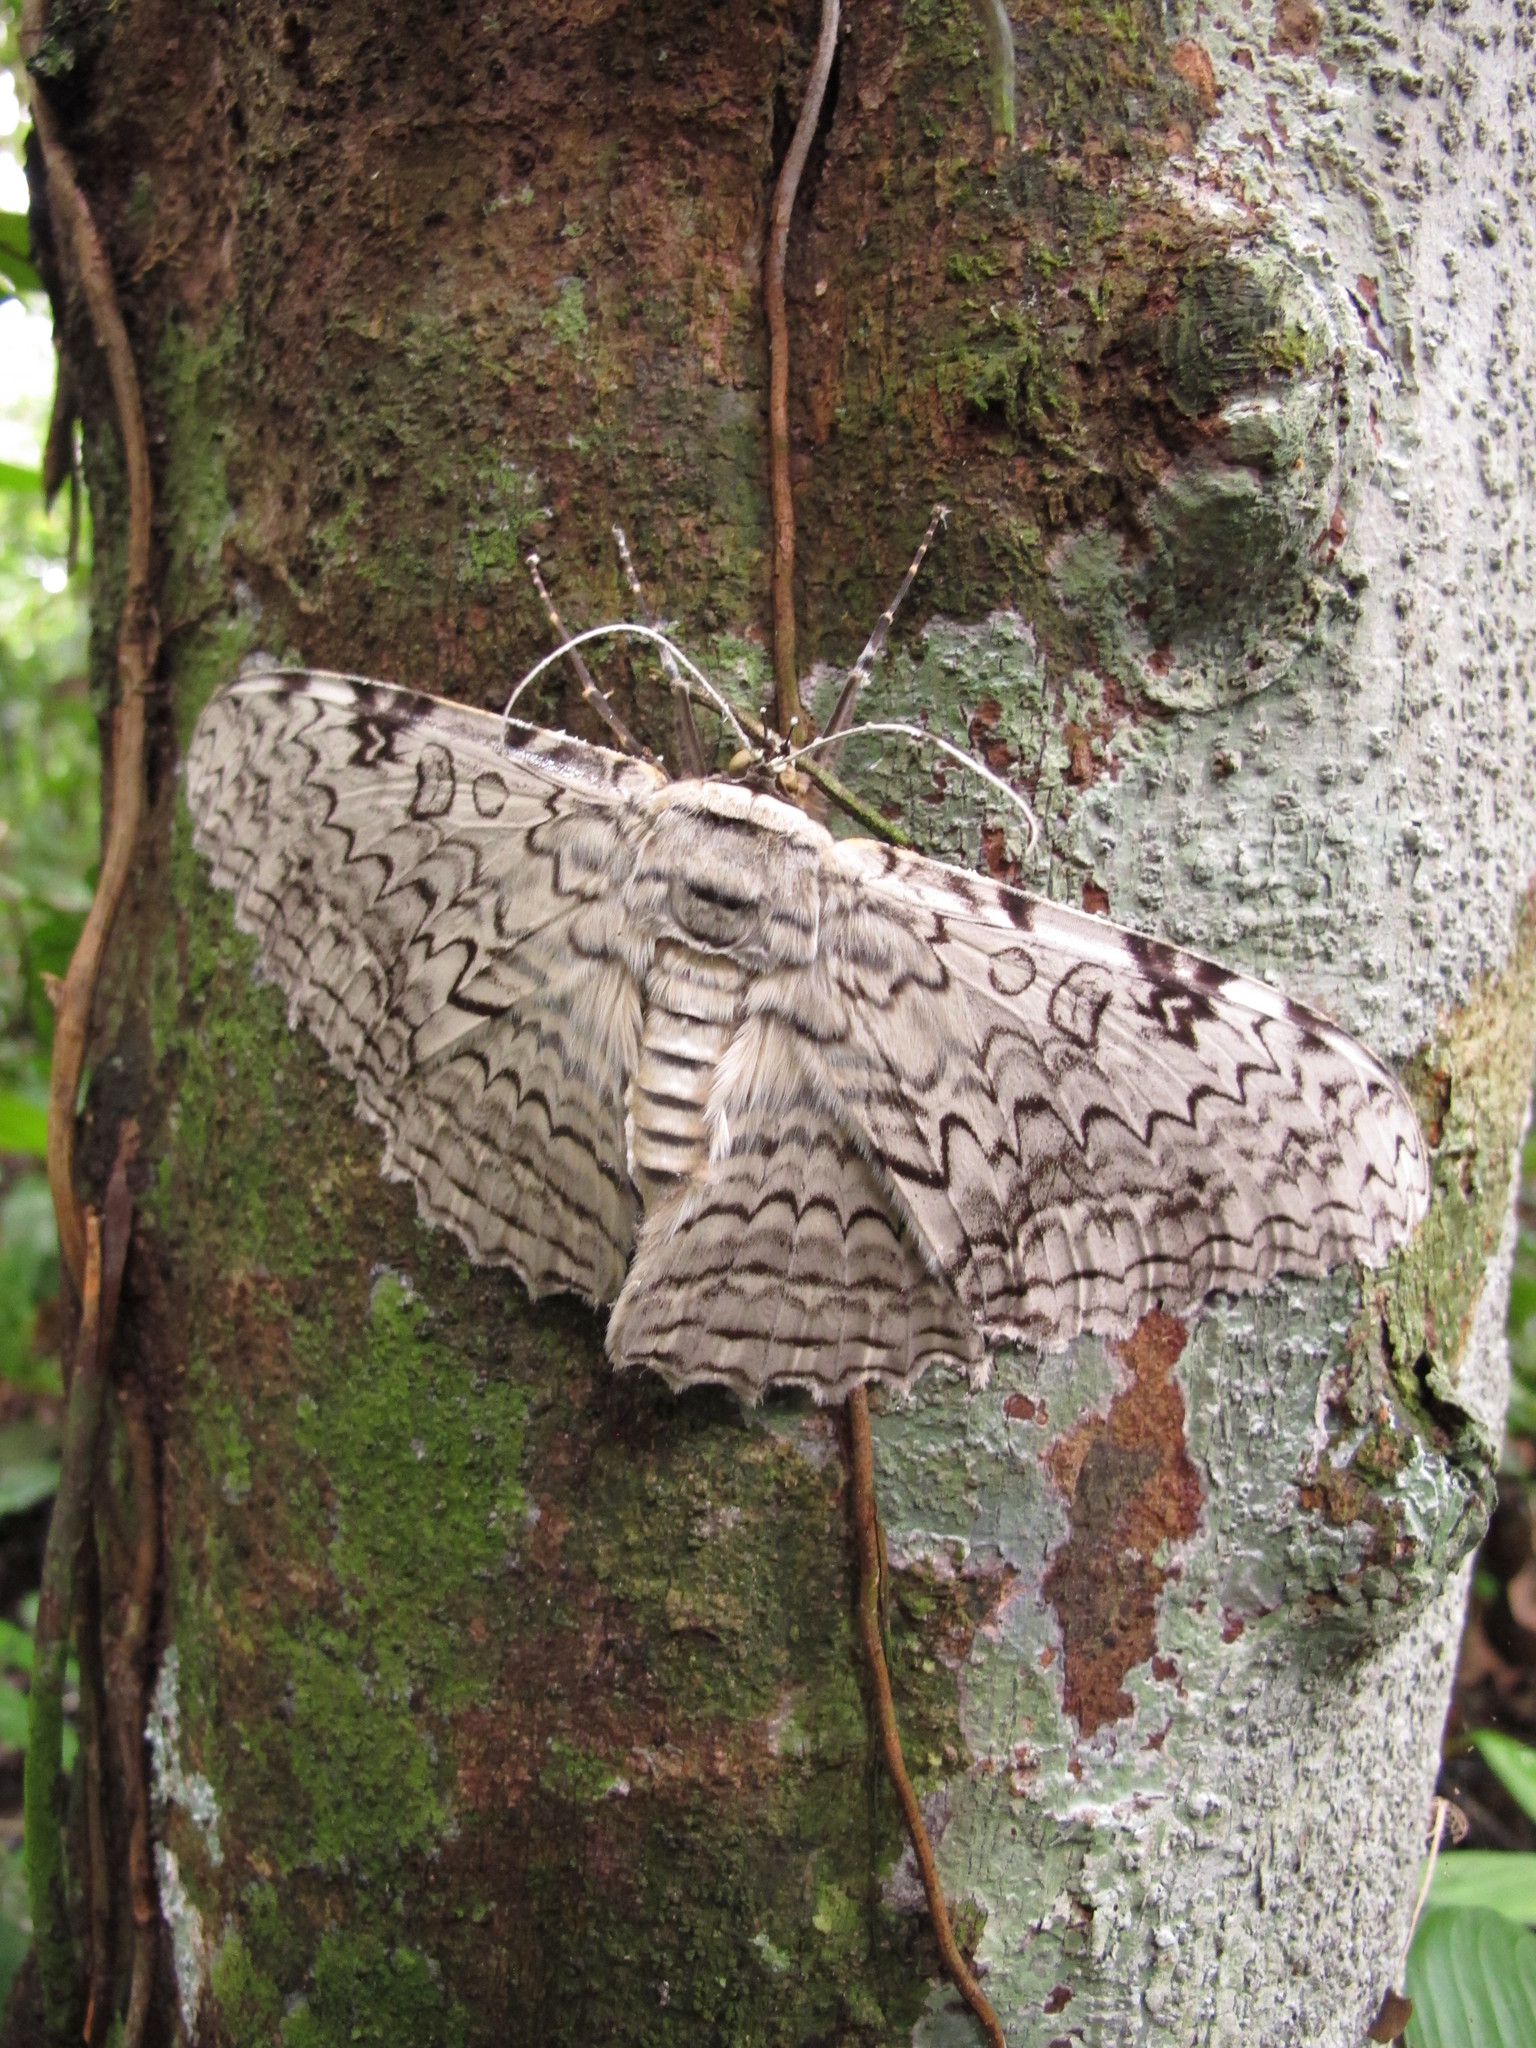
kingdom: Animalia
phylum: Arthropoda
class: Insecta
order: Lepidoptera
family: Erebidae
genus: Thysania
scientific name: Thysania agrippina
